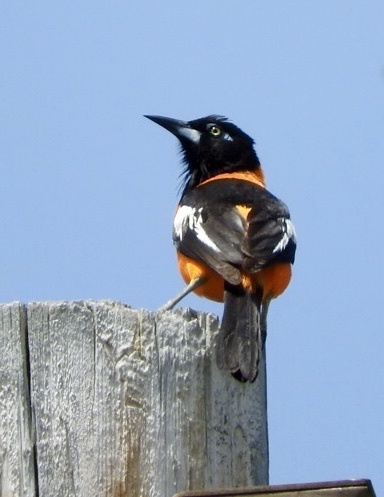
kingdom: Animalia
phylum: Chordata
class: Aves
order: Passeriformes
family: Icteridae
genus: Icterus
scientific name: Icterus icterus
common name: Venezuelan troupial
